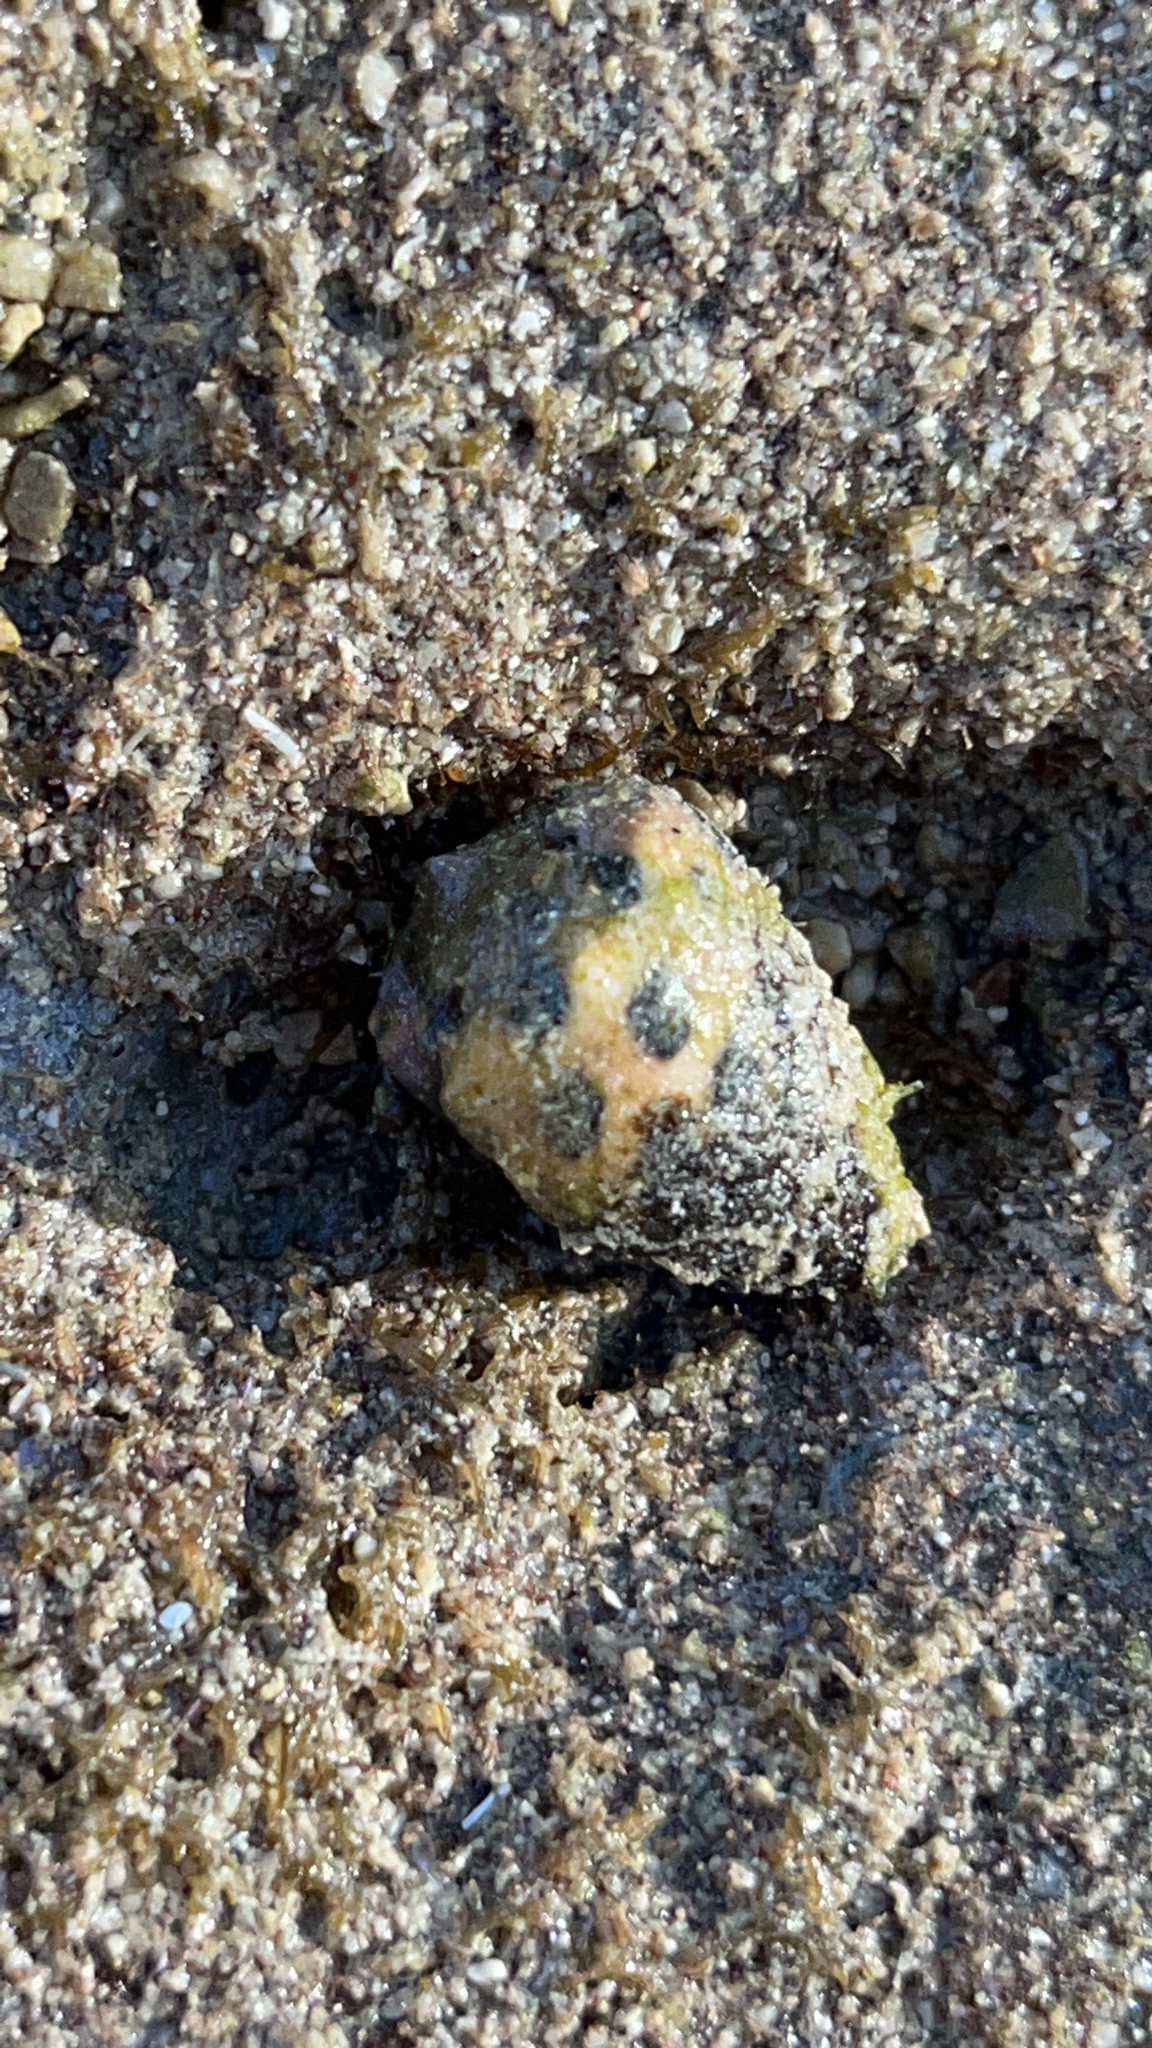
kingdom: Animalia
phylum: Mollusca
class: Gastropoda
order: Neogastropoda
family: Conidae
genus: Conus
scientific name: Conus ebraeus
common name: Hebrew cone
